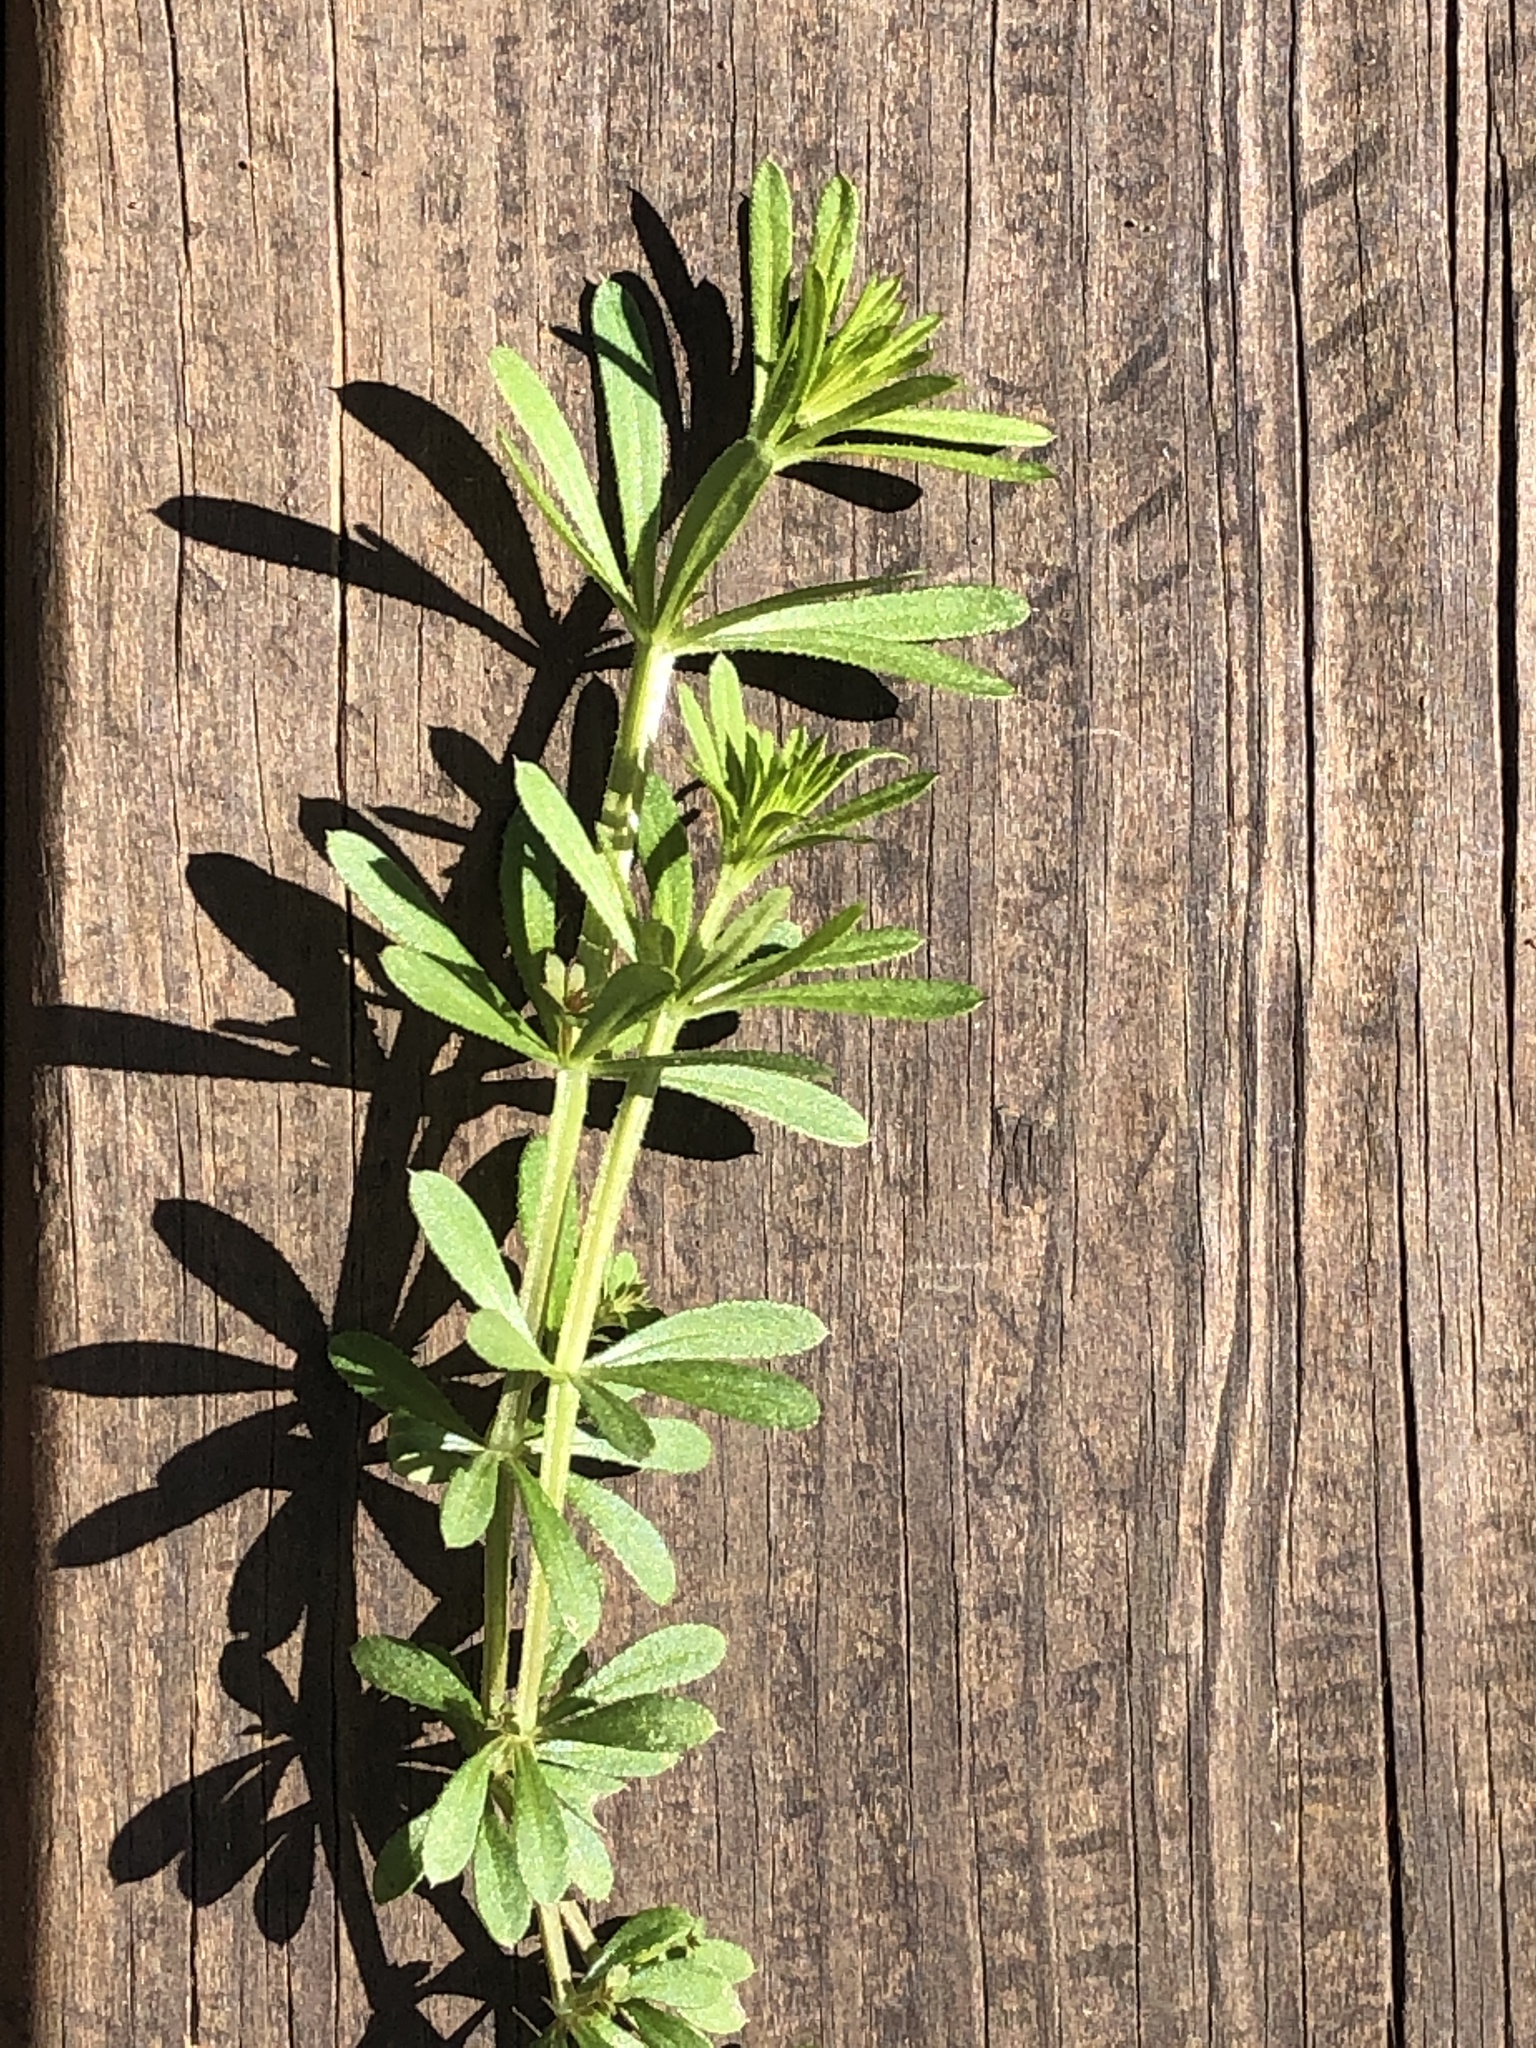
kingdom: Plantae
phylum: Tracheophyta
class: Magnoliopsida
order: Gentianales
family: Rubiaceae
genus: Galium
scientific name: Galium aparine
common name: Cleavers
